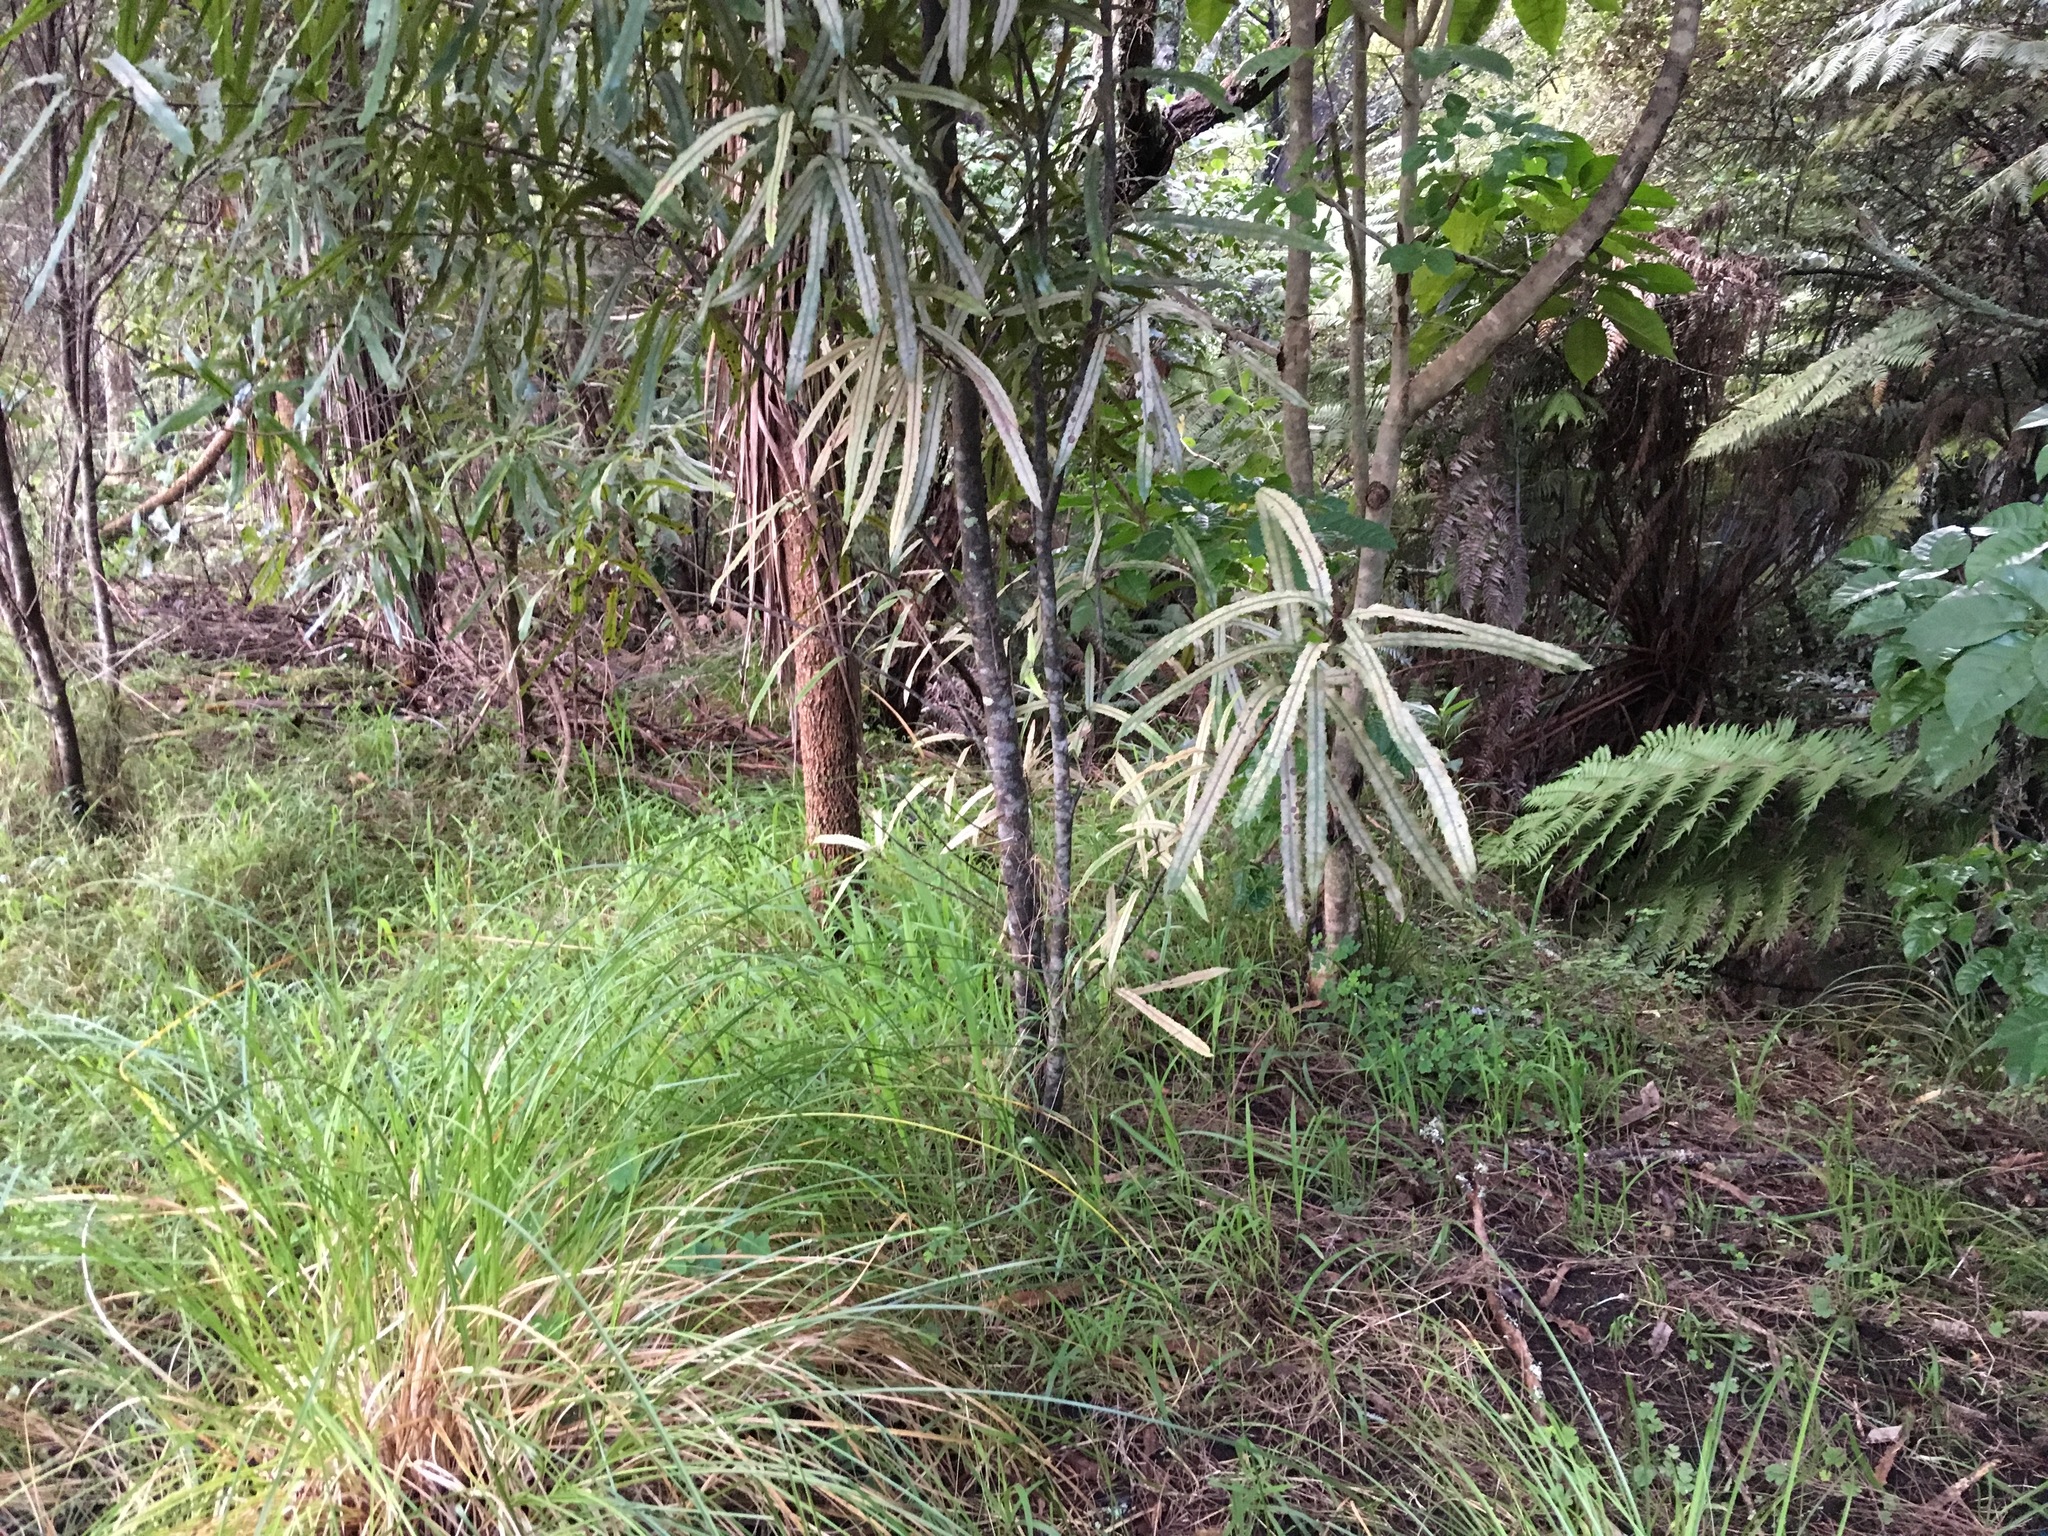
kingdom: Plantae
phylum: Tracheophyta
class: Magnoliopsida
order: Proteales
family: Proteaceae
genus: Knightia
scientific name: Knightia excelsa
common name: New zealand-honeysuckle
